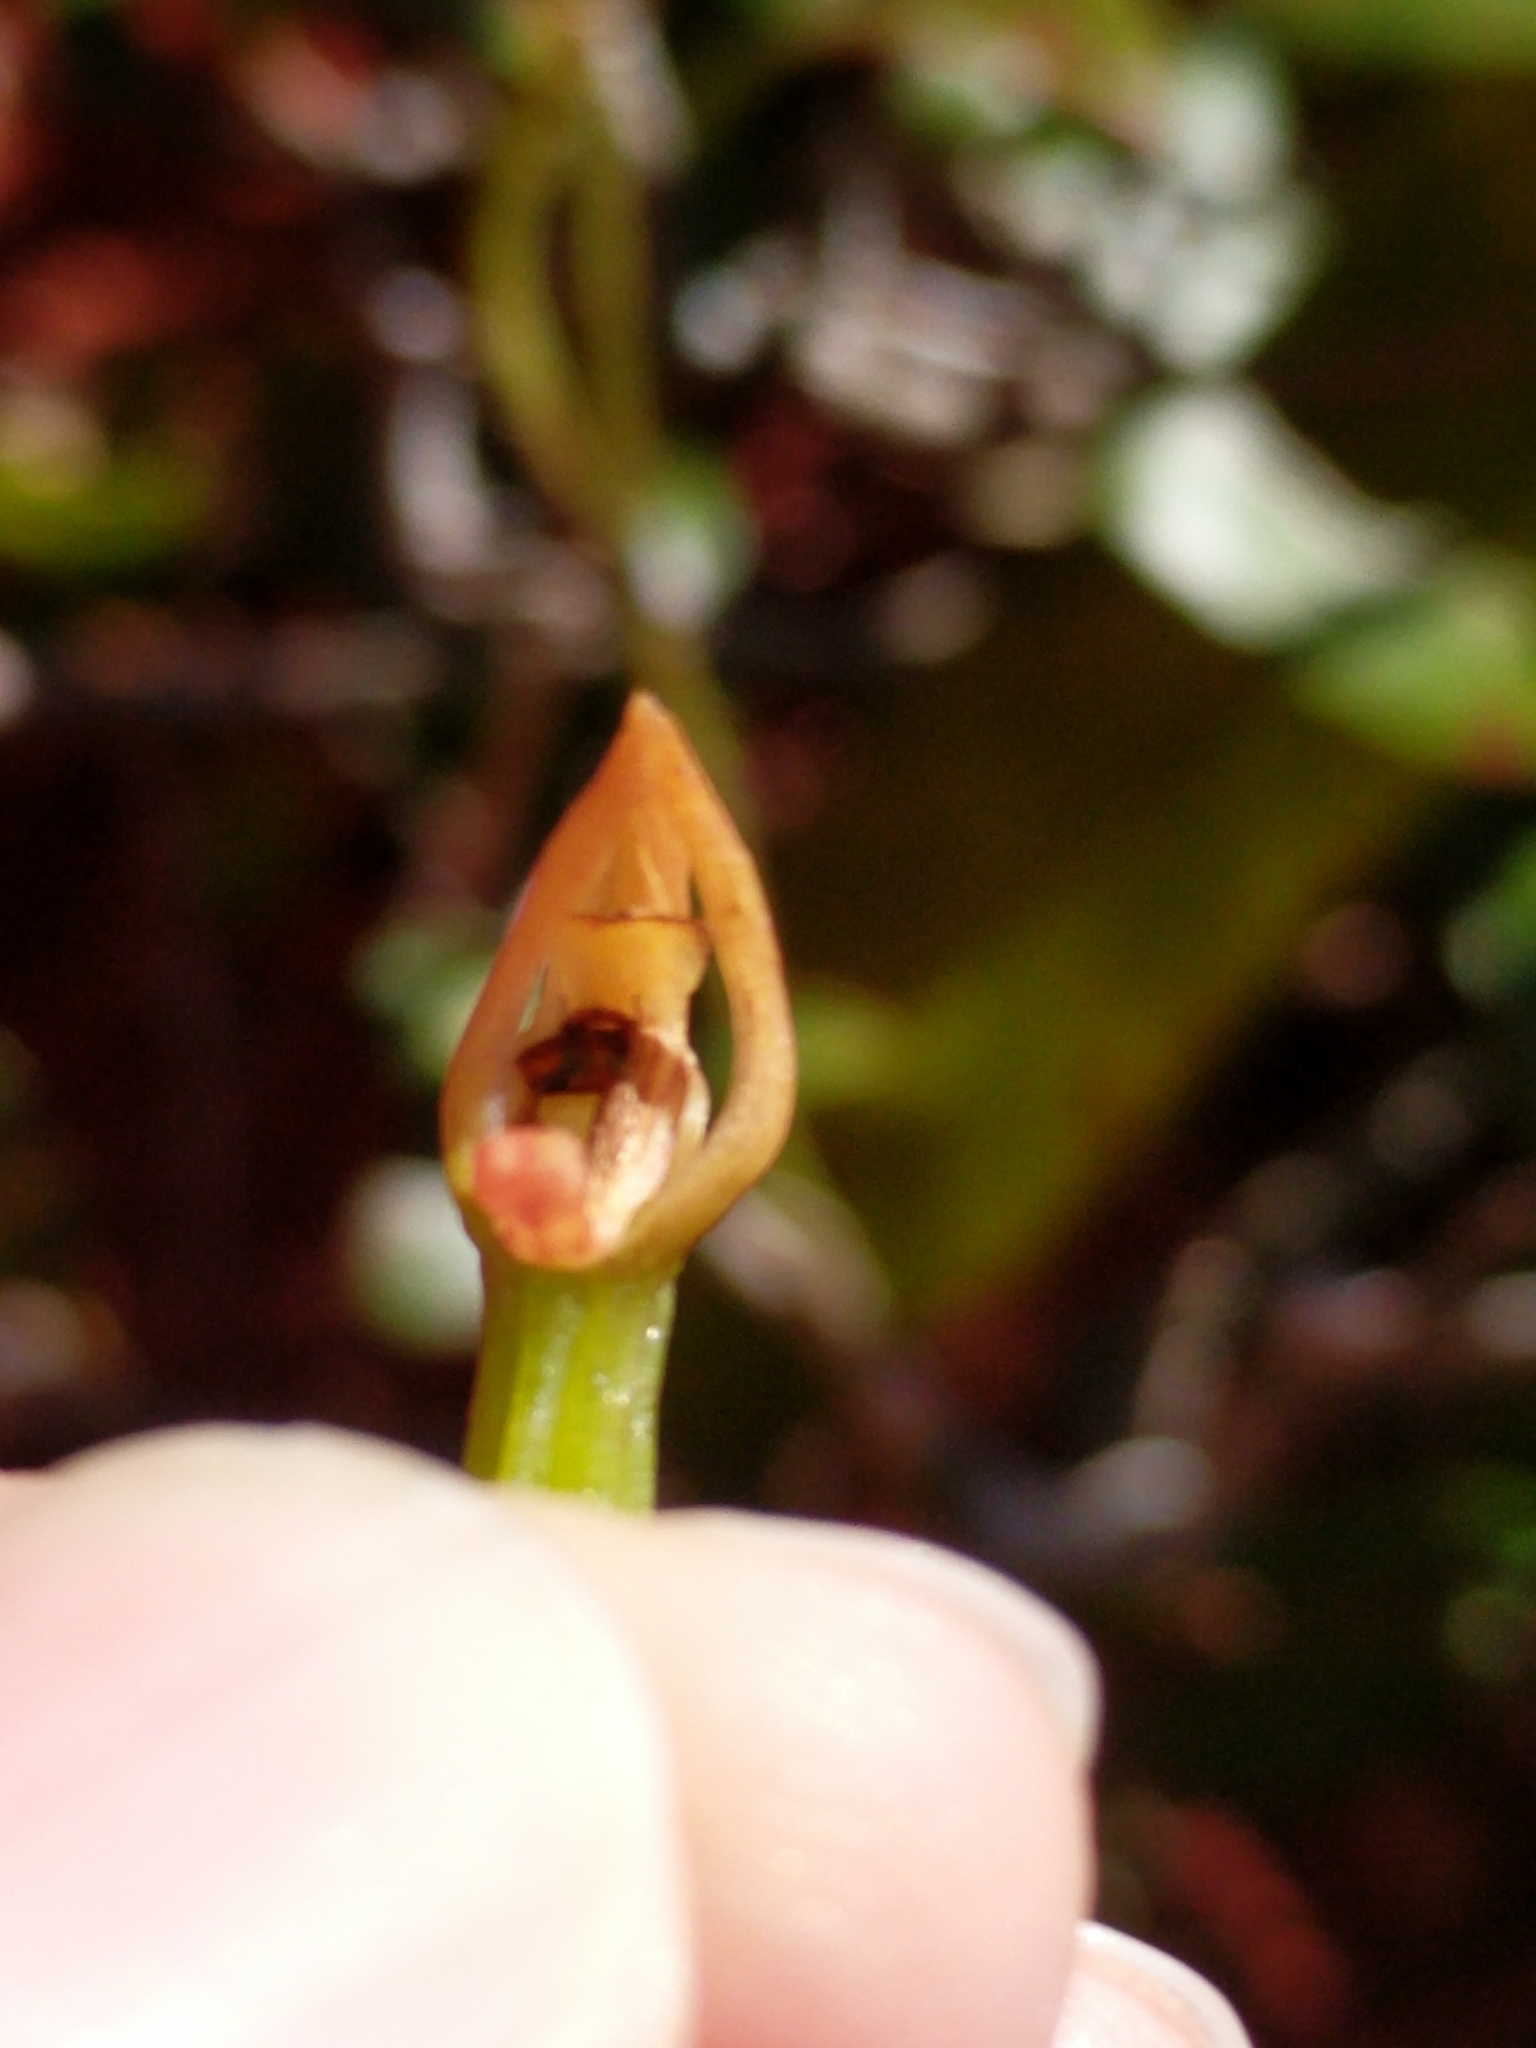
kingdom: Plantae
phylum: Tracheophyta
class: Liliopsida
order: Asparagales
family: Orchidaceae
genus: Eulophia
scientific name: Eulophia maculata
